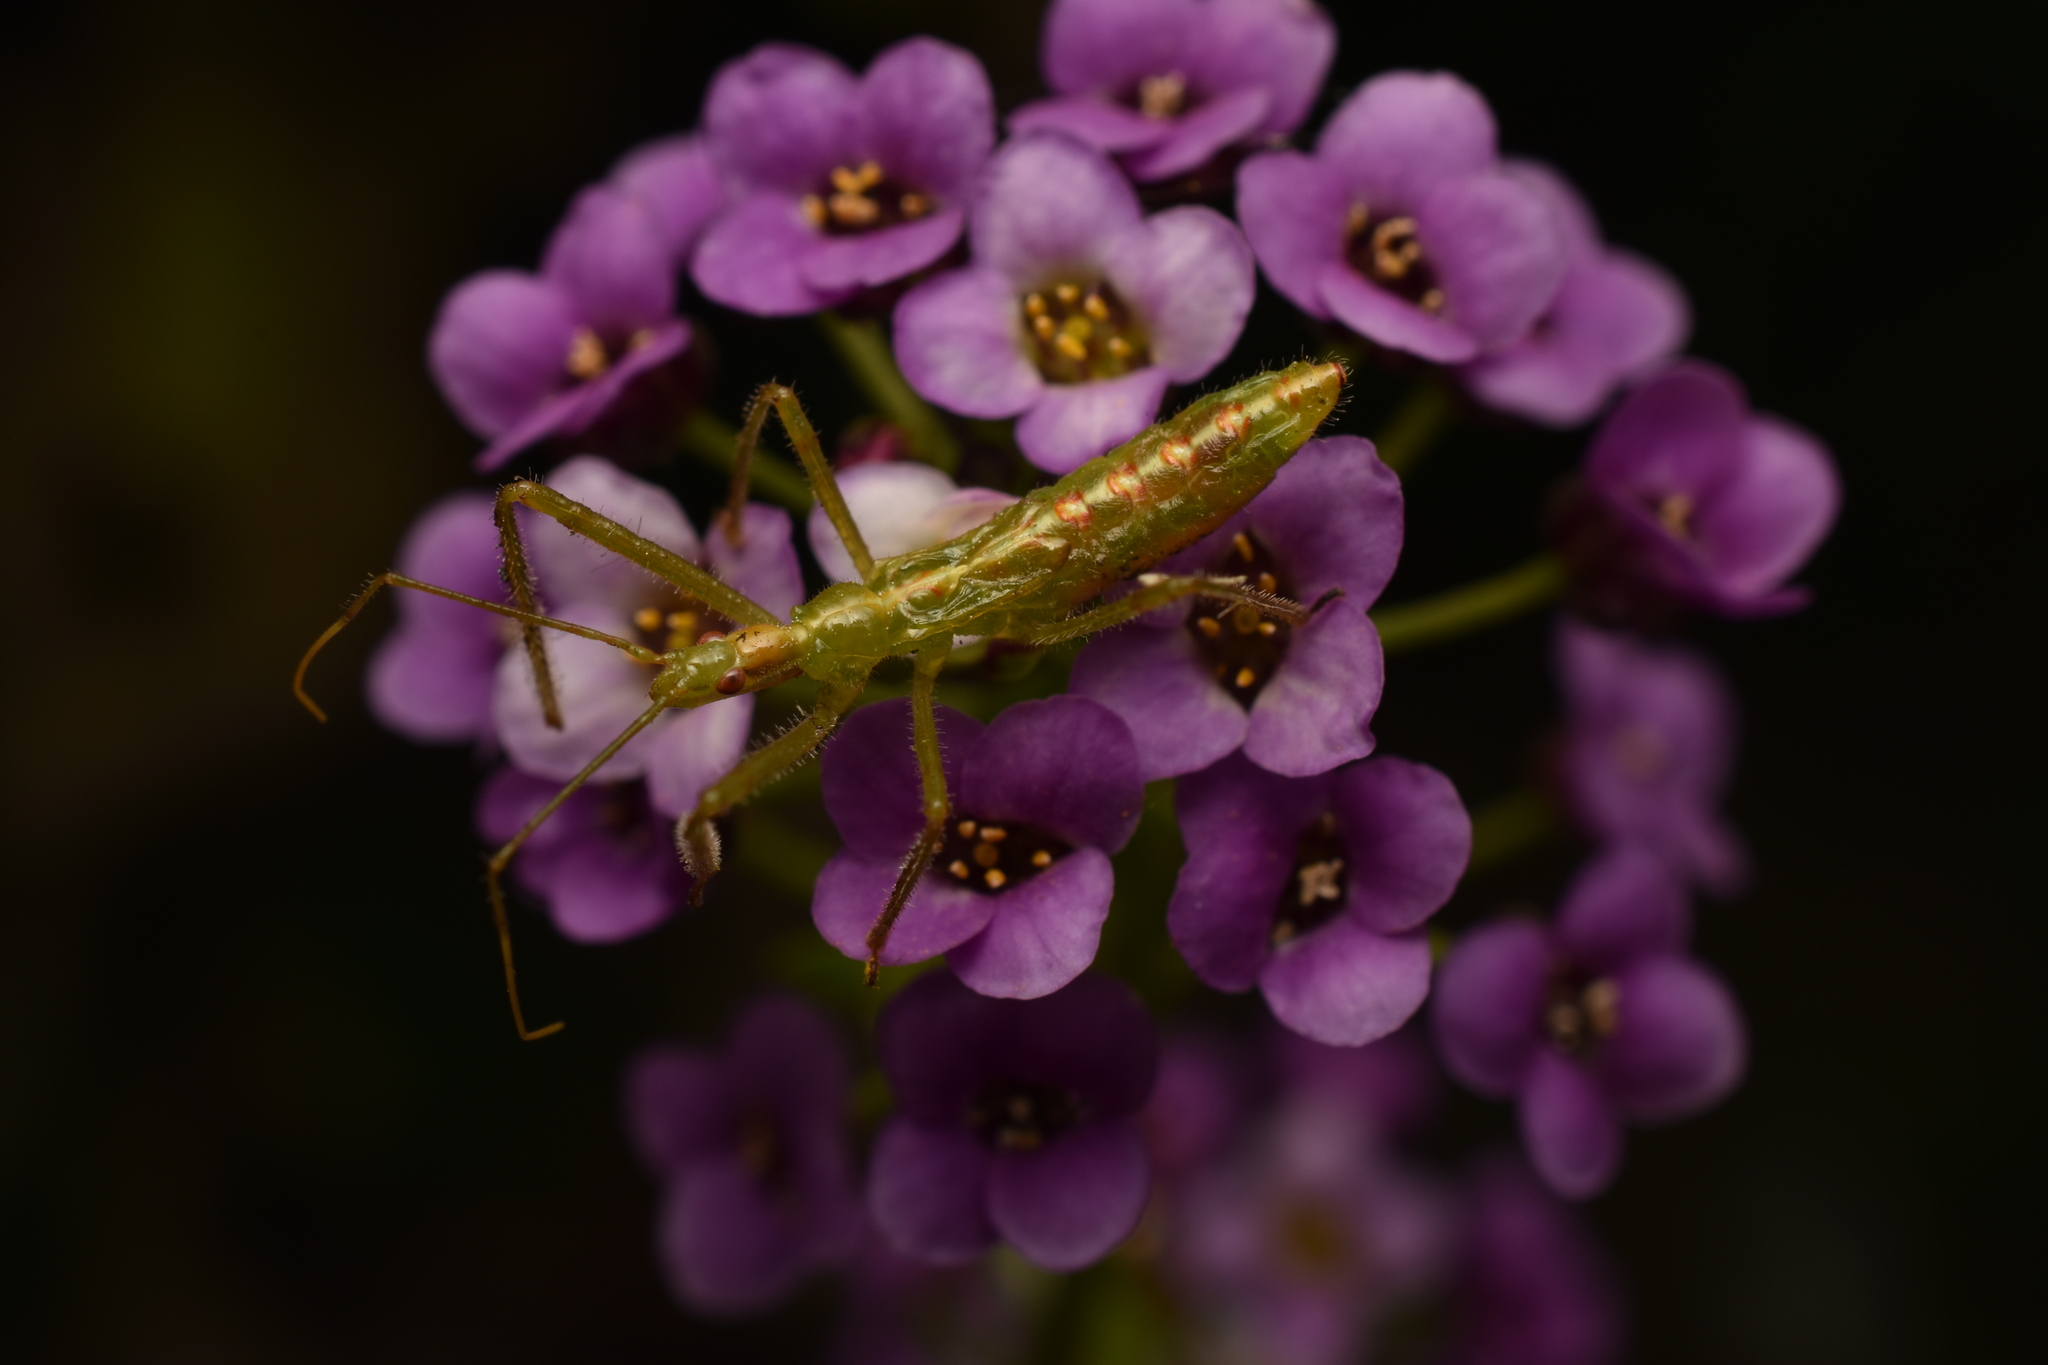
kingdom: Animalia
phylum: Arthropoda
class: Insecta
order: Hemiptera
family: Reduviidae
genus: Zelus
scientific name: Zelus luridus
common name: Pale green assassin bug
